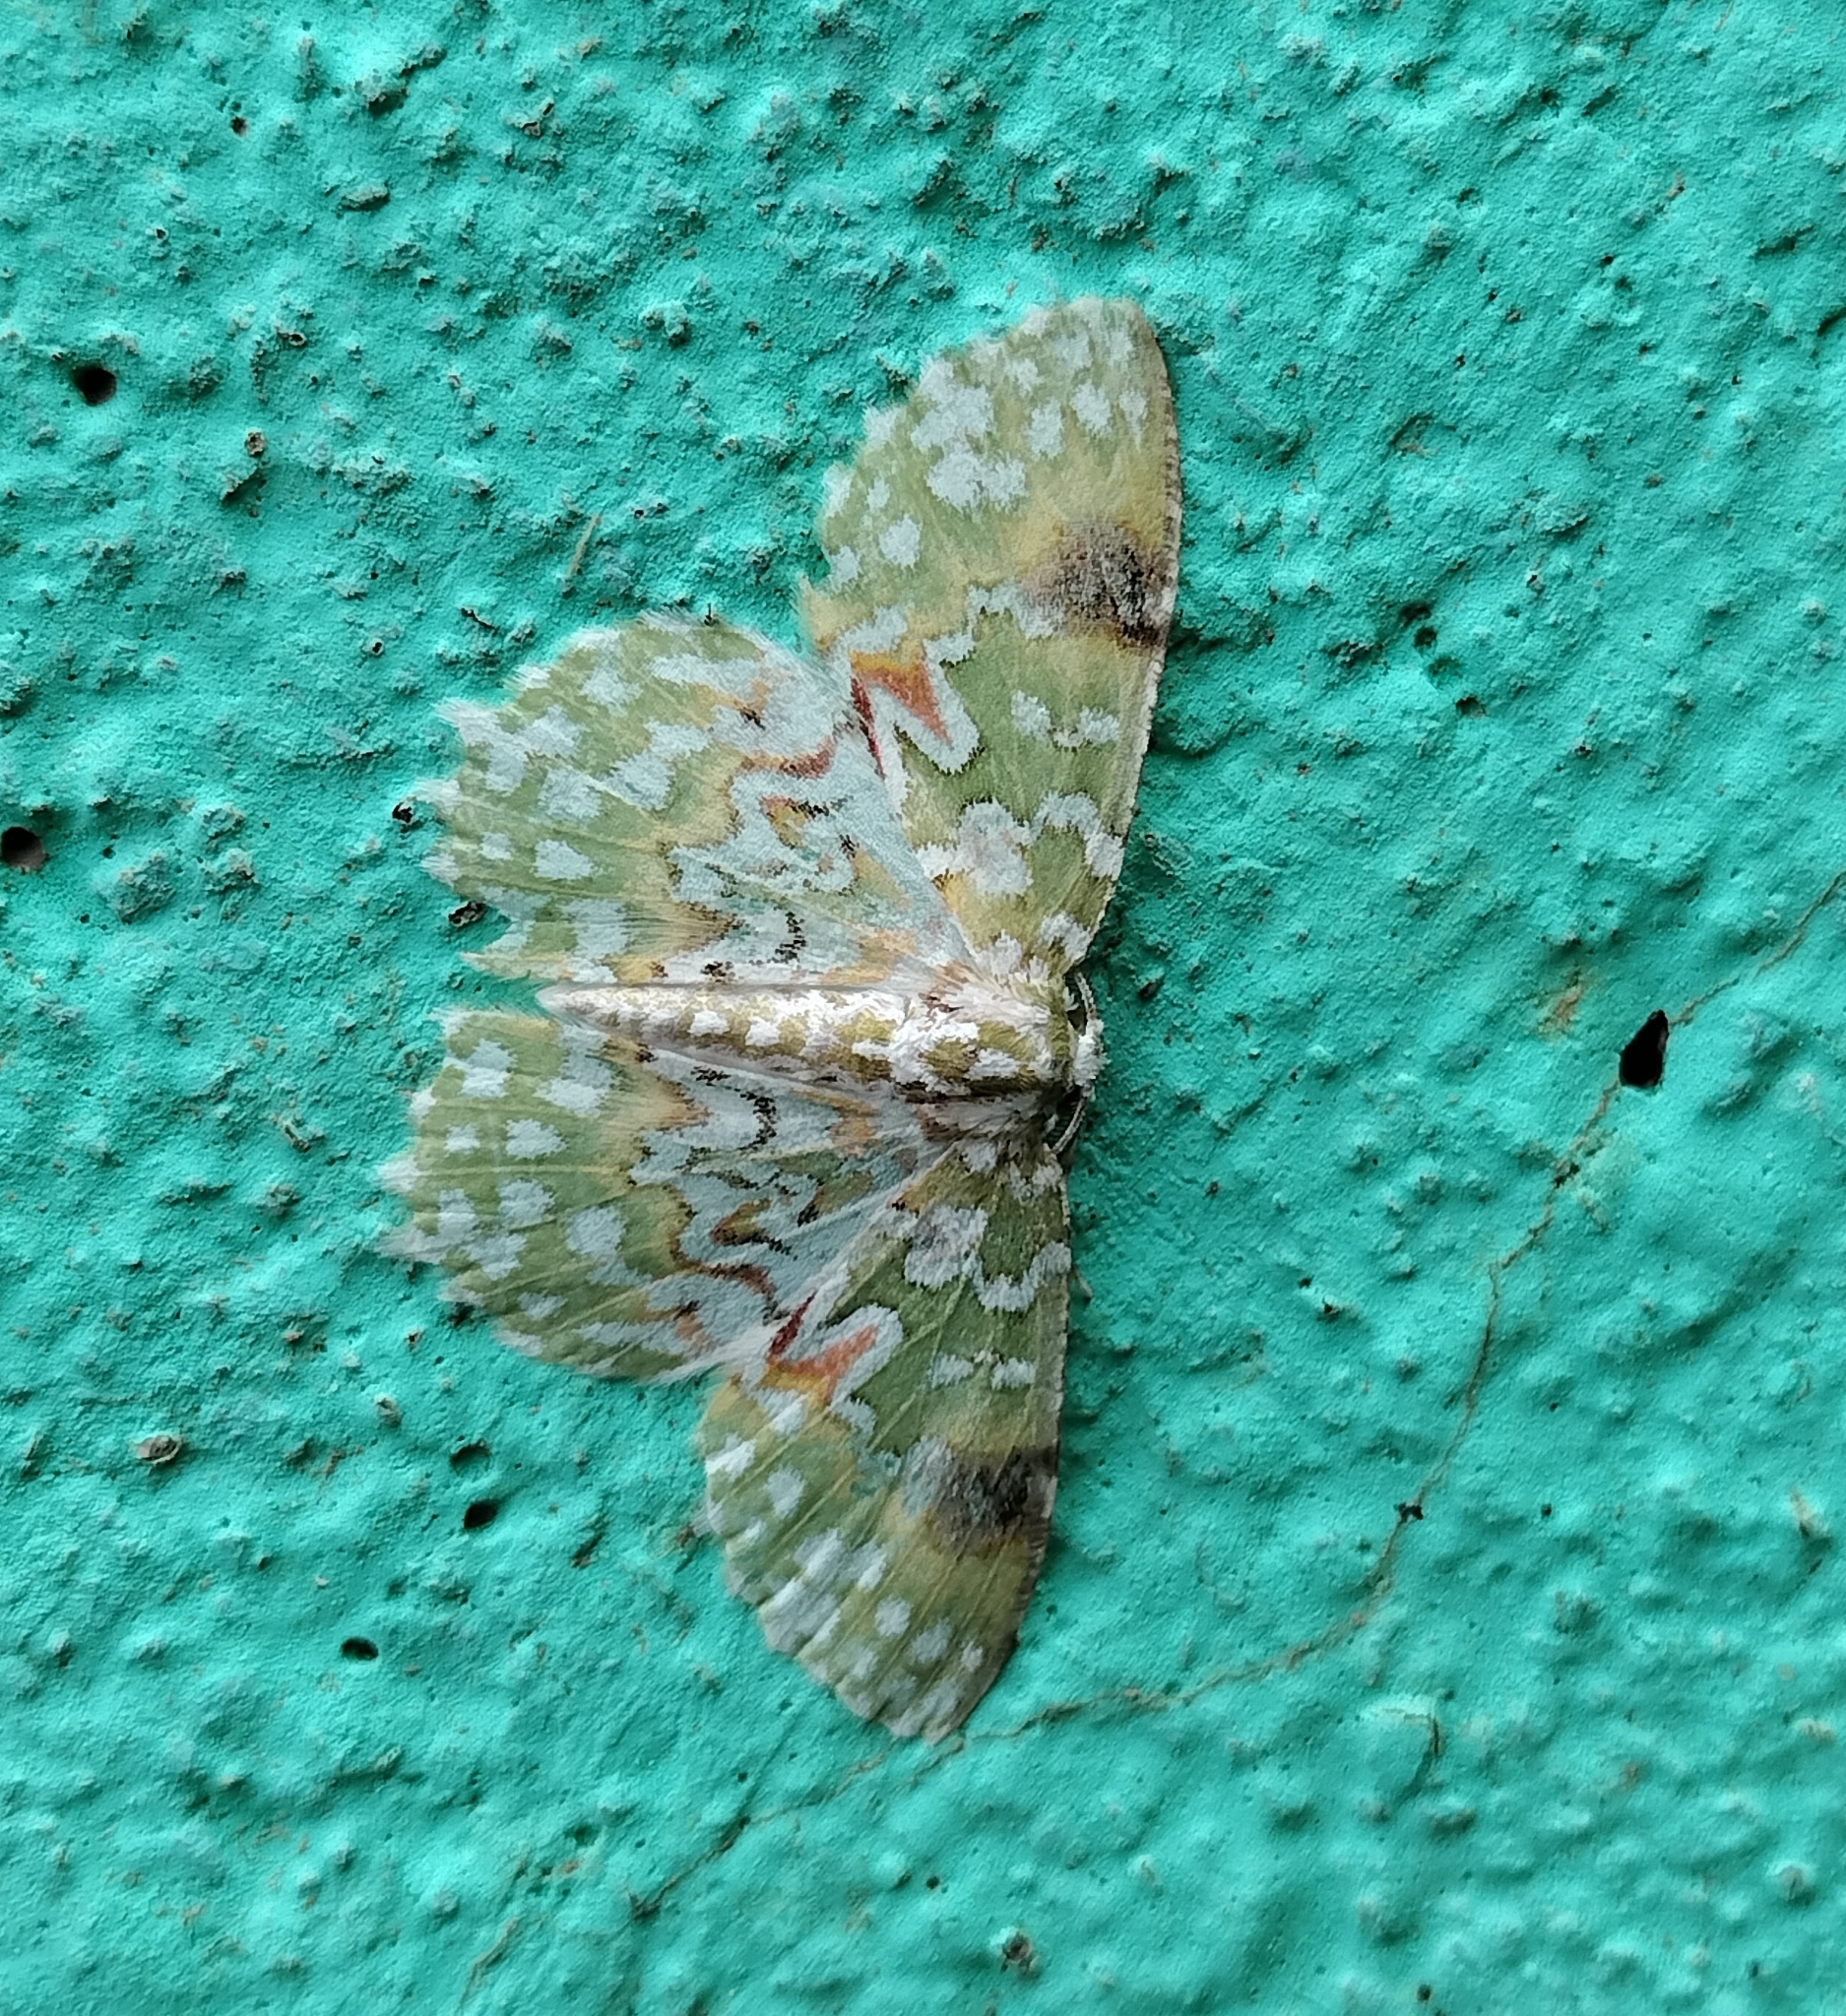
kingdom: Animalia
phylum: Arthropoda
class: Insecta
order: Lepidoptera
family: Geometridae
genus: Eucyclodes
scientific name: Eucyclodes gavissima
